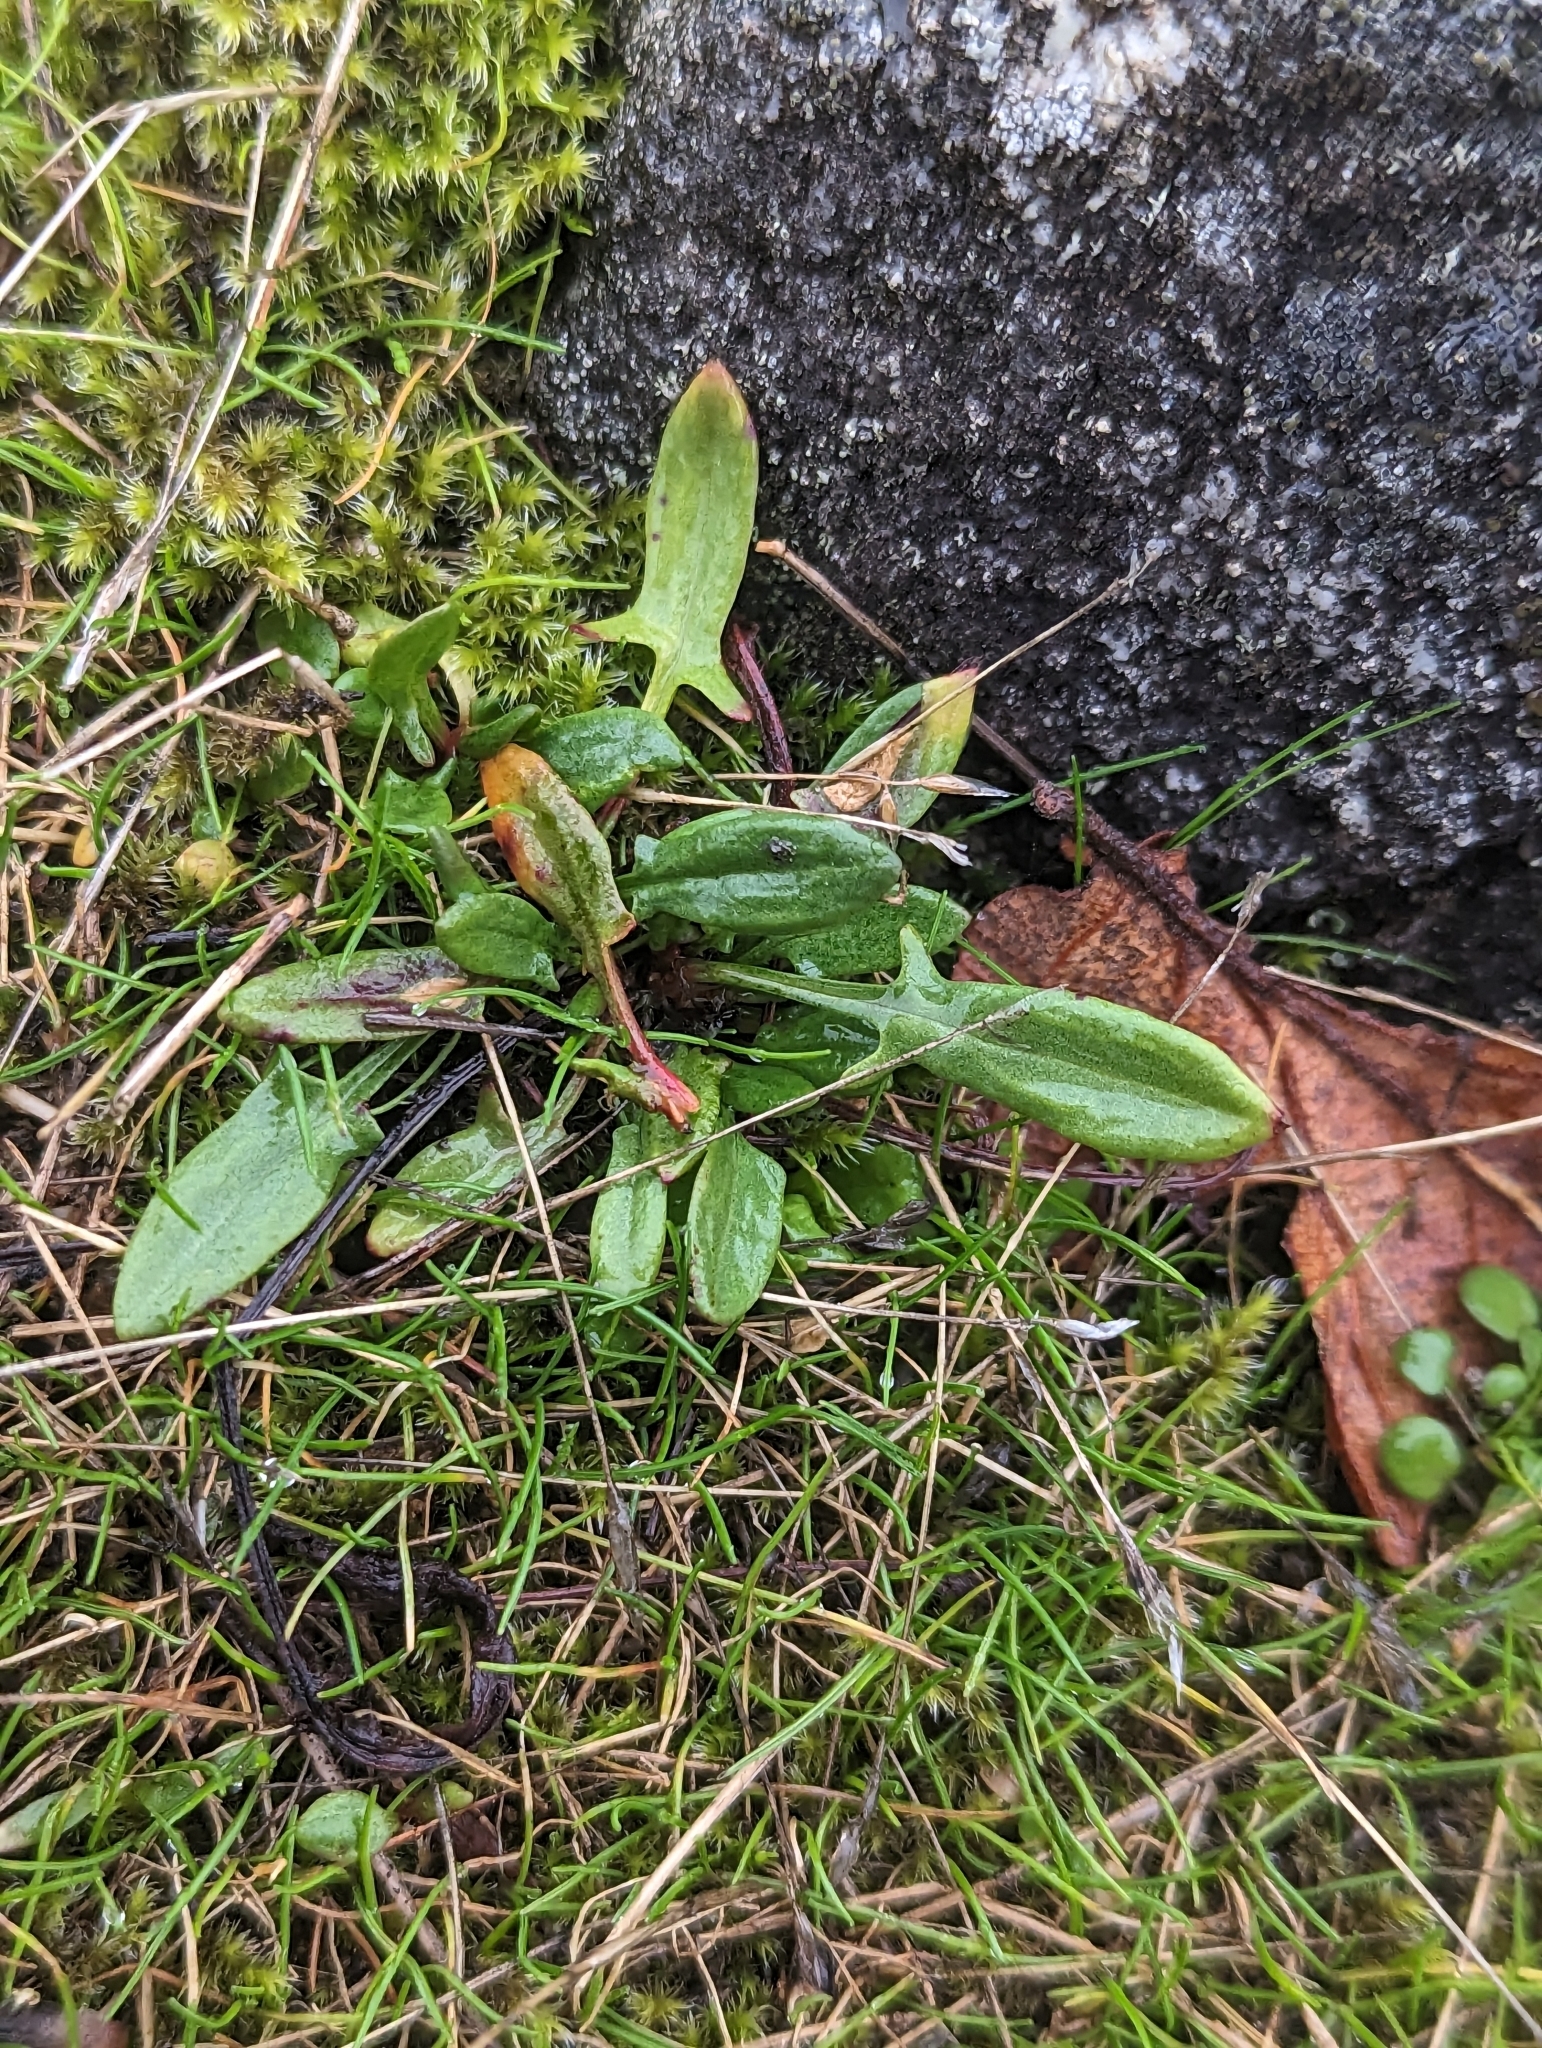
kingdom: Plantae
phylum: Tracheophyta
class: Magnoliopsida
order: Caryophyllales
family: Polygonaceae
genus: Rumex
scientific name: Rumex acetosella
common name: Common sheep sorrel
